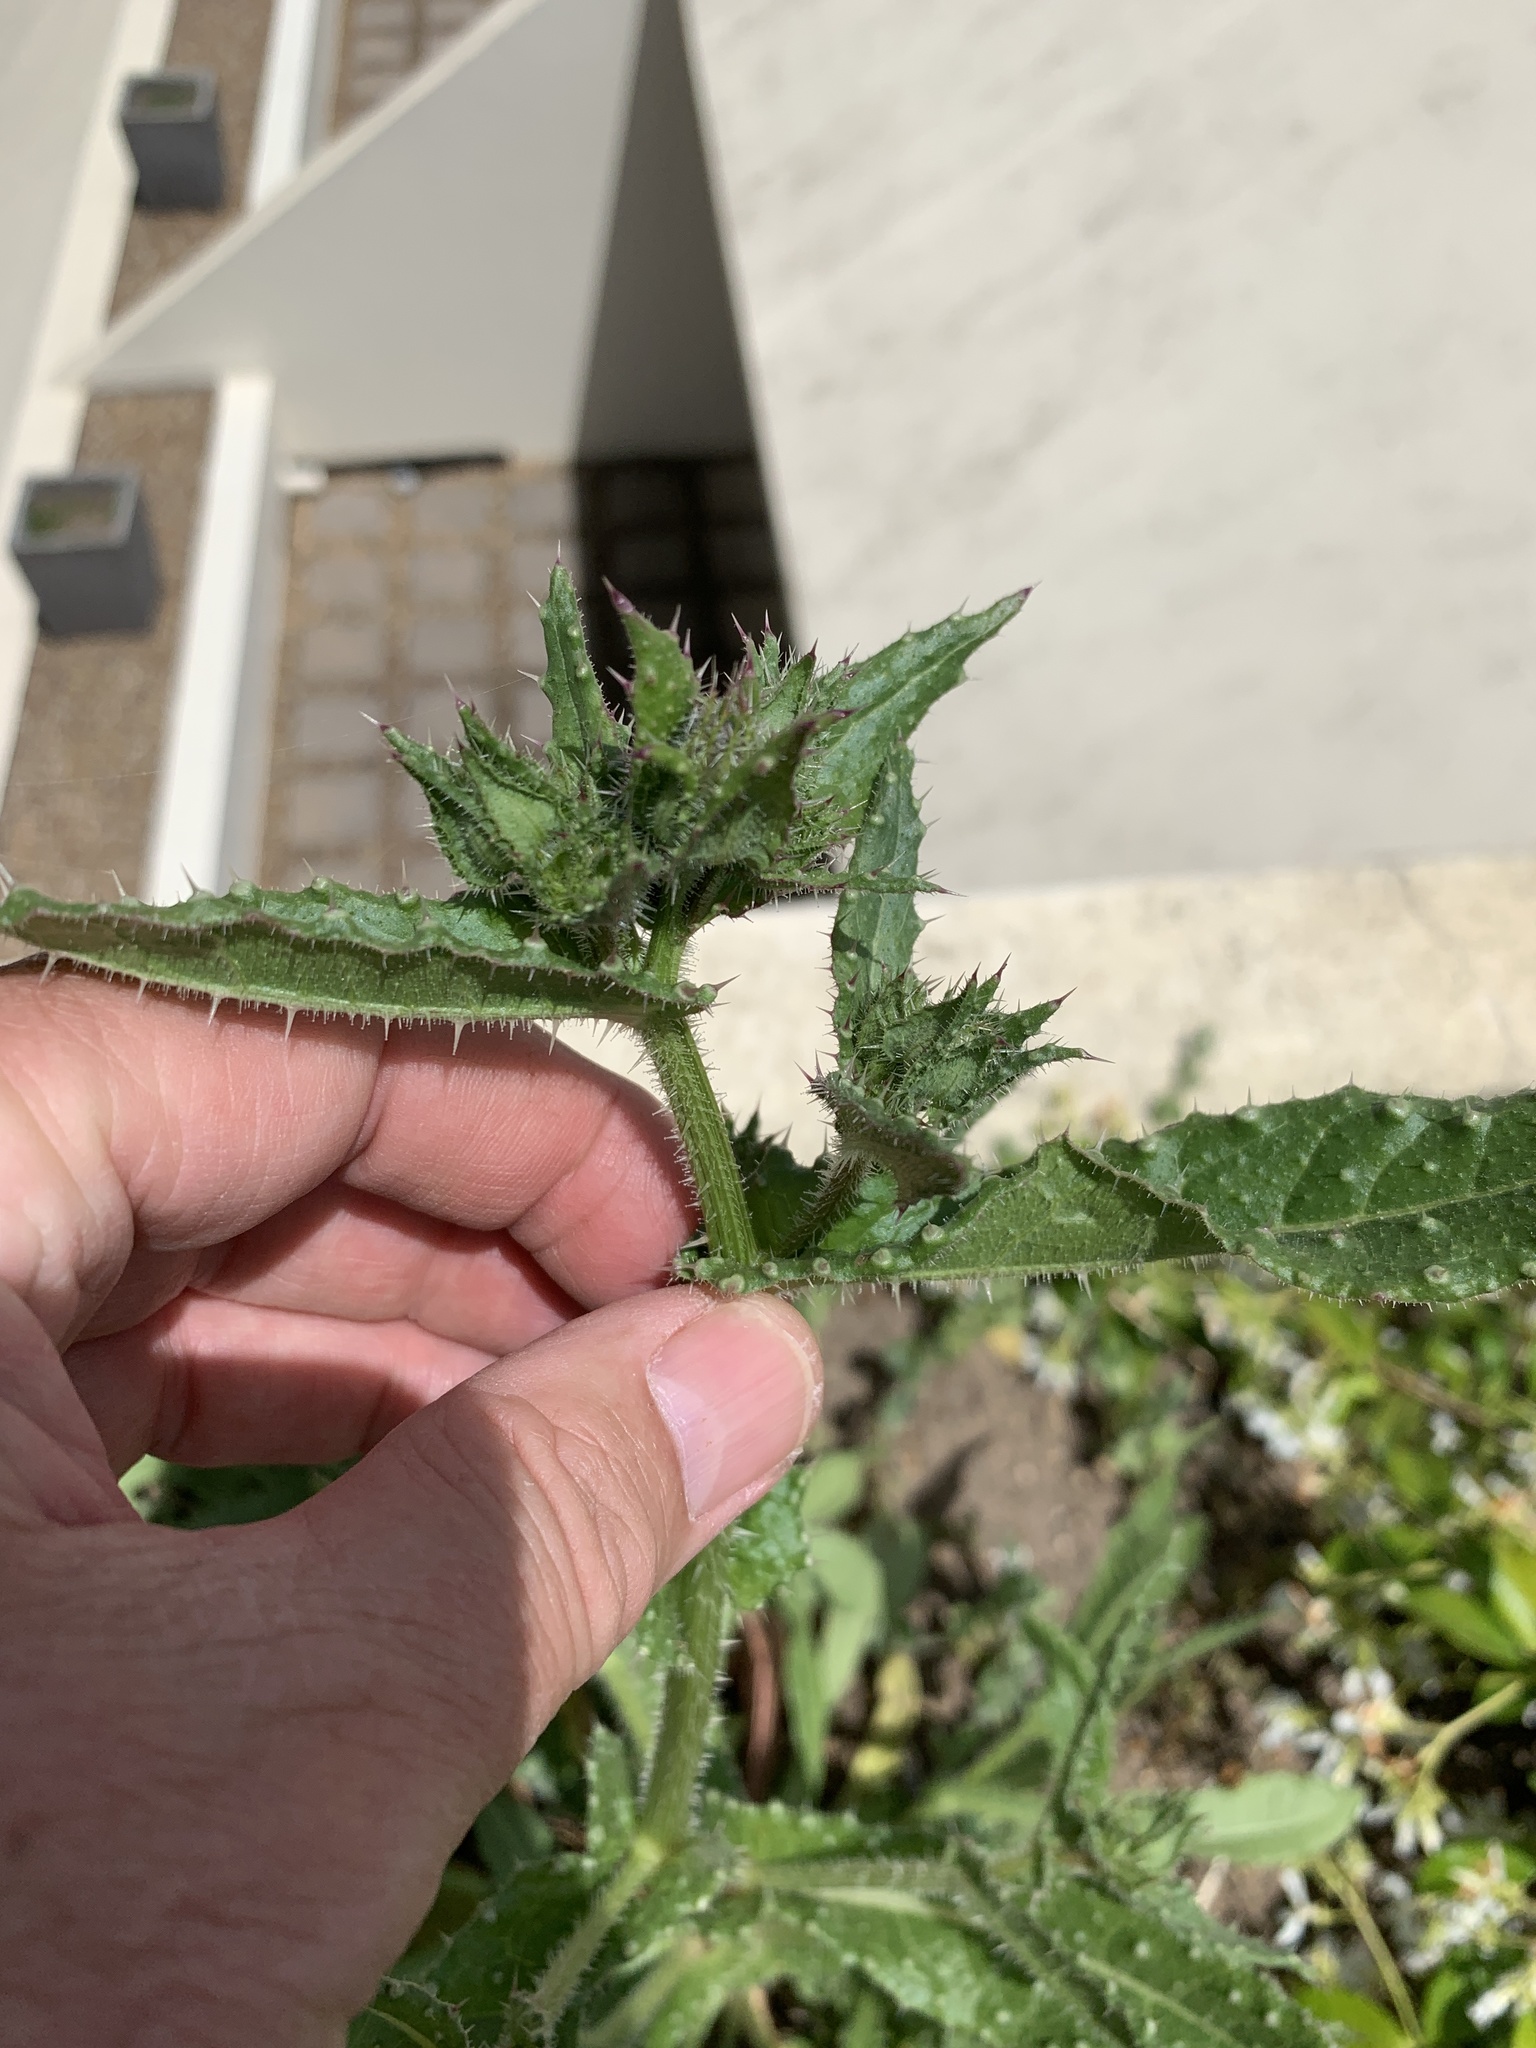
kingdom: Plantae
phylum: Tracheophyta
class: Magnoliopsida
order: Asterales
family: Asteraceae
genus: Helminthotheca
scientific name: Helminthotheca echioides
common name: Ox-tongue
